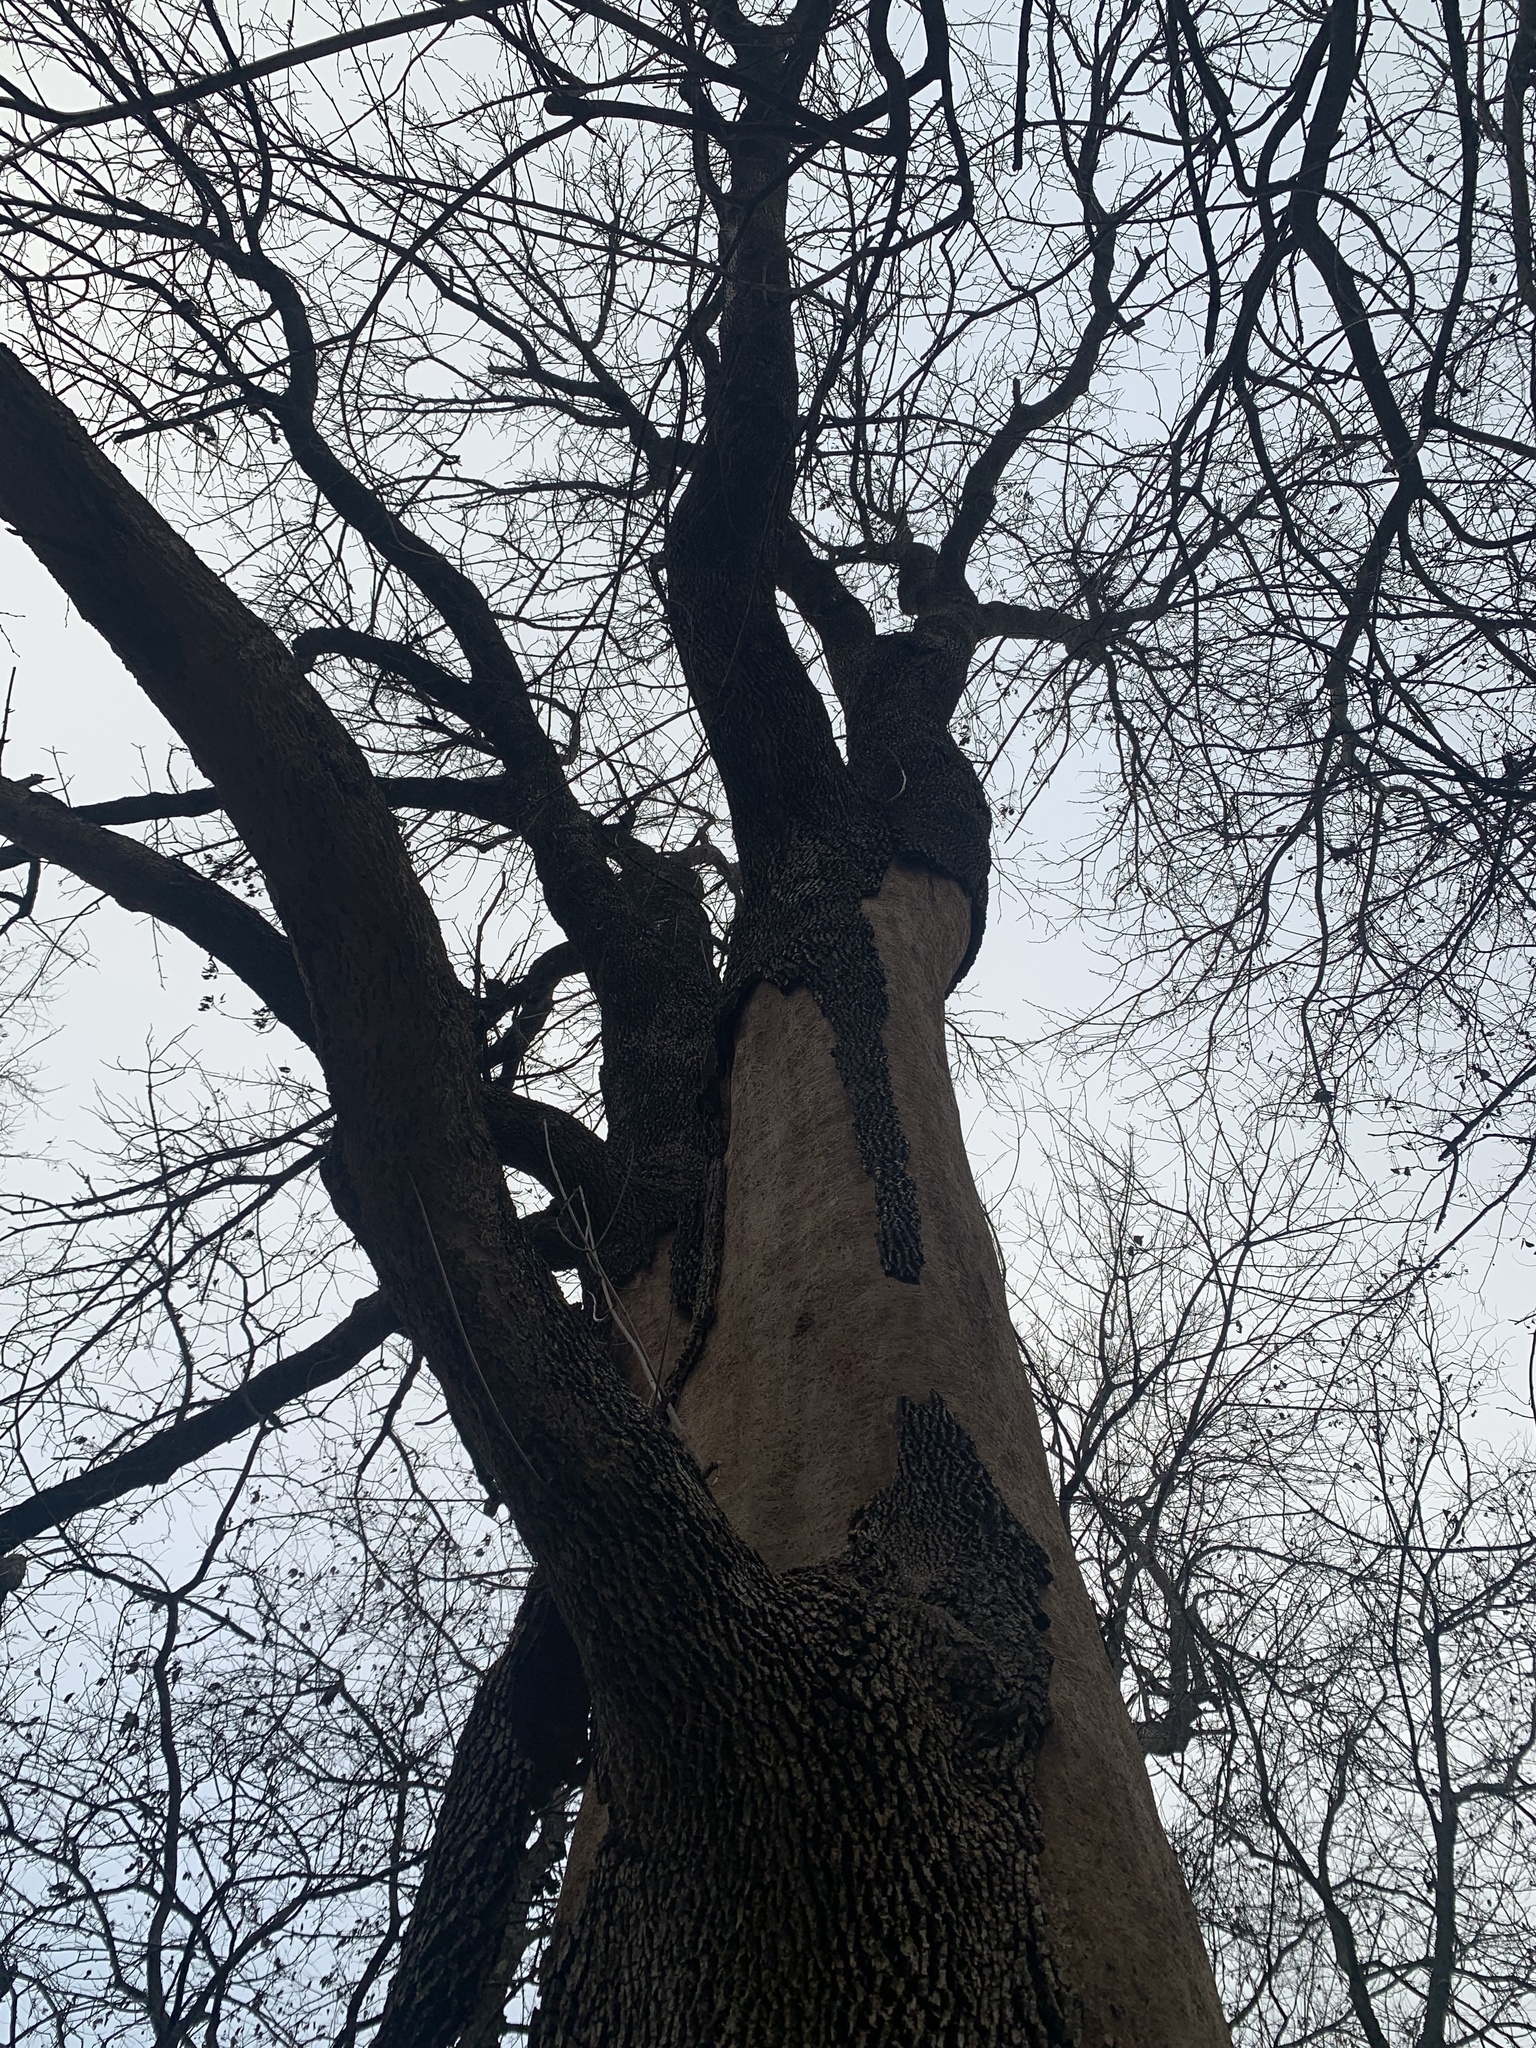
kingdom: Animalia
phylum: Arthropoda
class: Insecta
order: Coleoptera
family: Buprestidae
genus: Agrilus
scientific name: Agrilus planipennis
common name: Emerald ash borer
